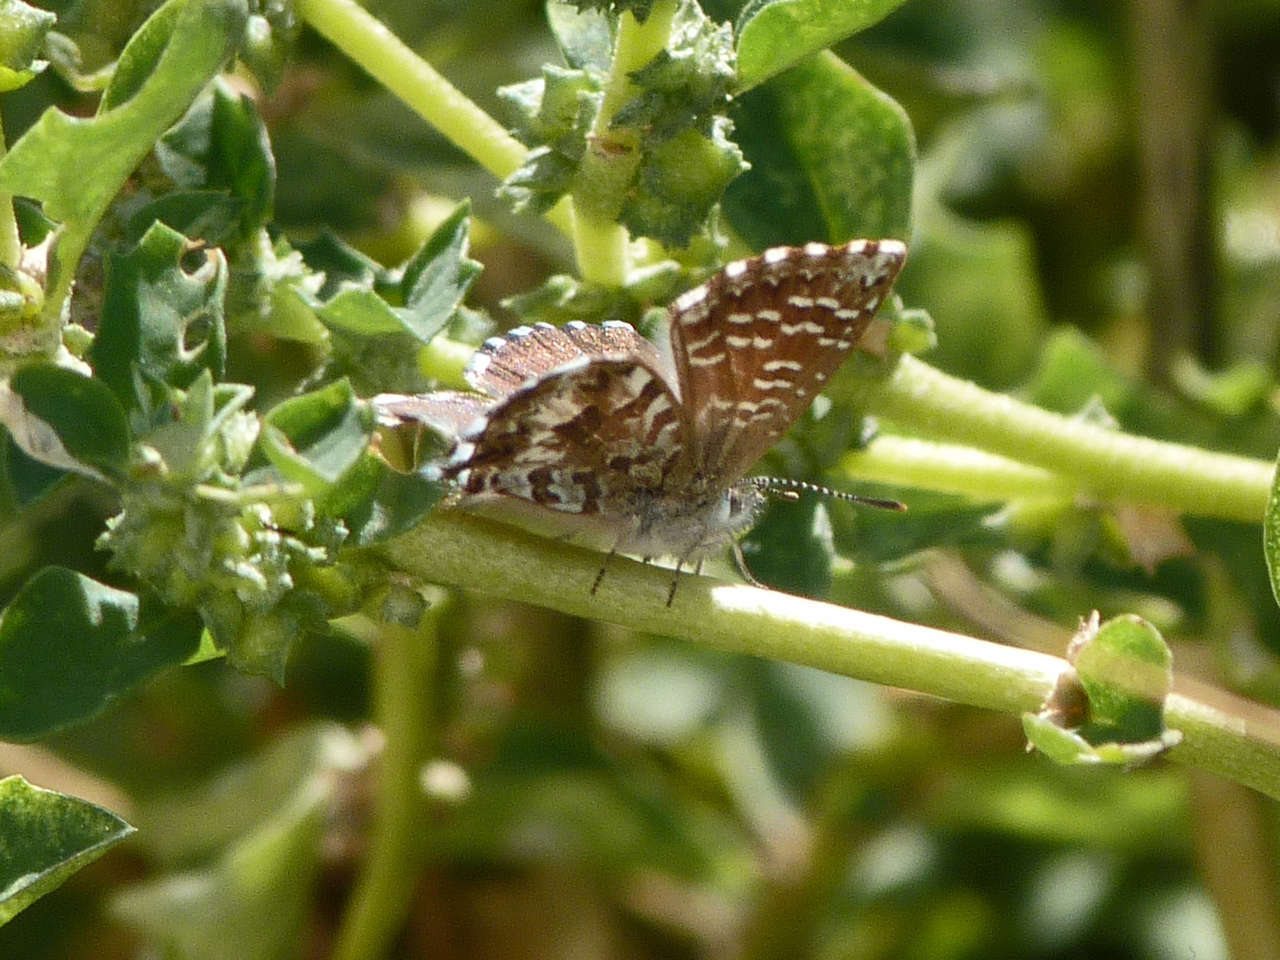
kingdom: Animalia
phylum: Arthropoda
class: Insecta
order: Lepidoptera
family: Lycaenidae
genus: Theclinesthes
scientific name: Theclinesthes serpentata
